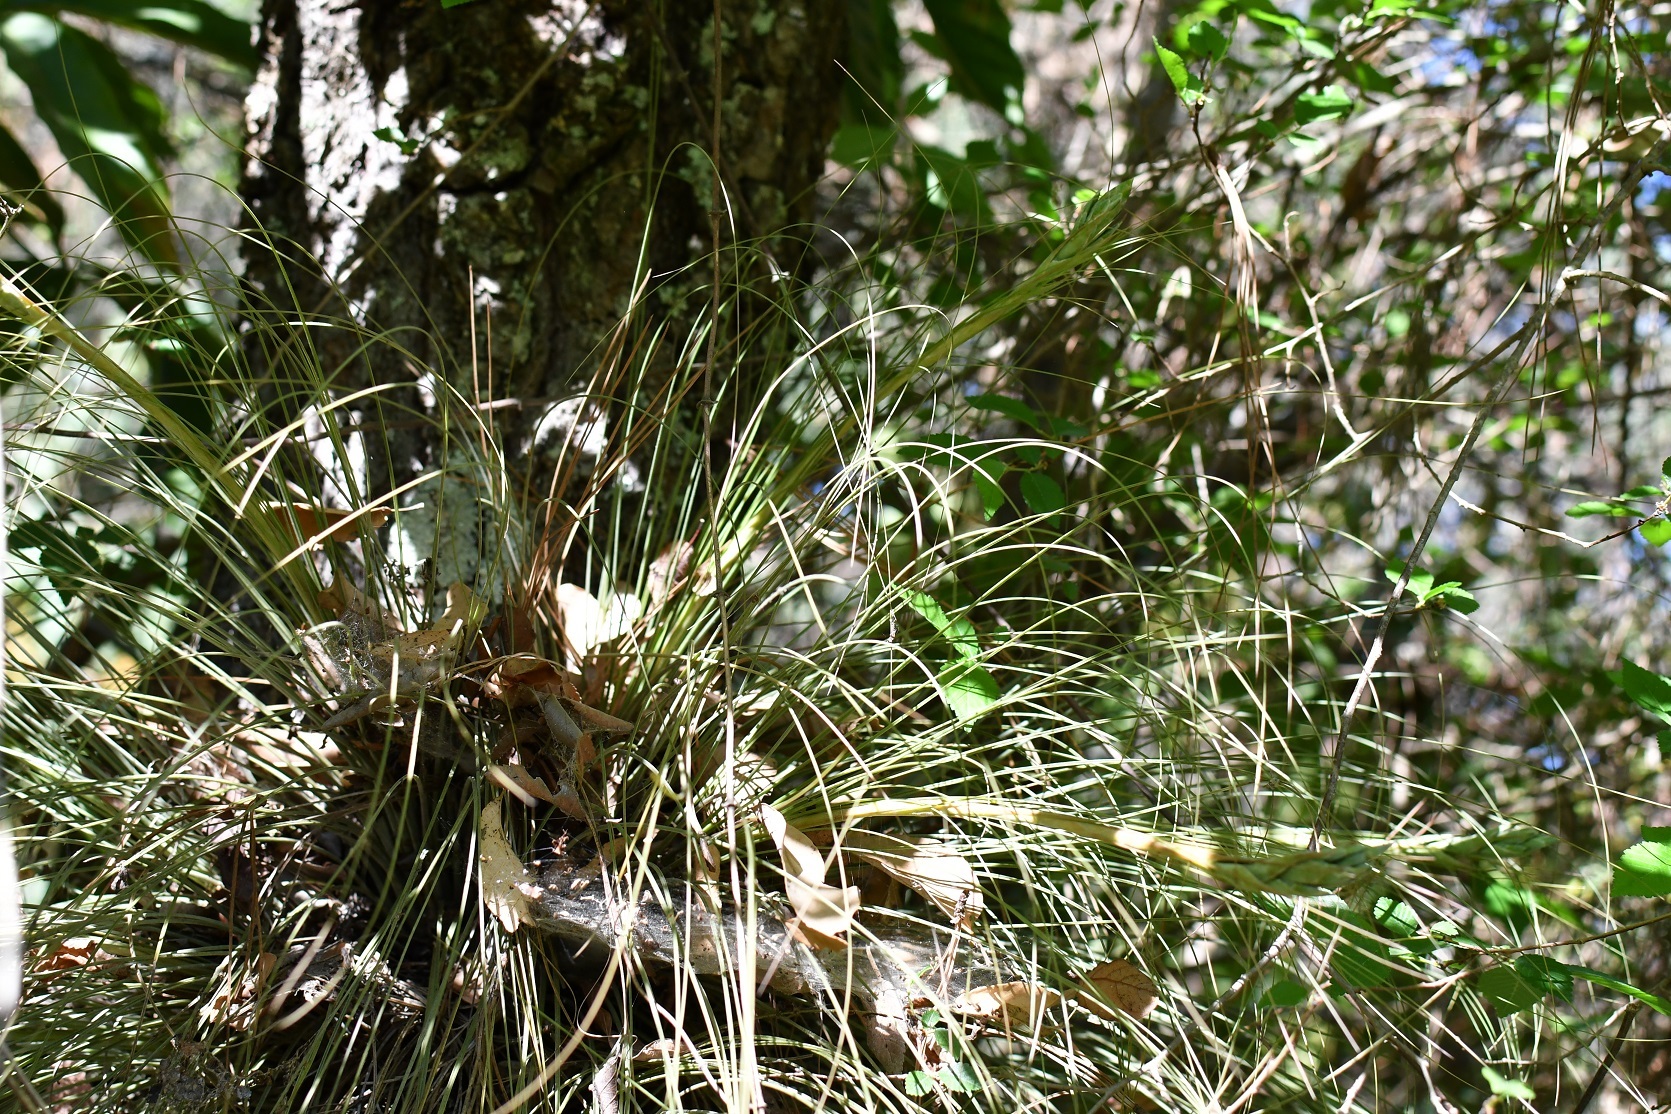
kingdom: Plantae
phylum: Tracheophyta
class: Liliopsida
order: Poales
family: Bromeliaceae
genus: Tillandsia
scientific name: Tillandsia juncea
